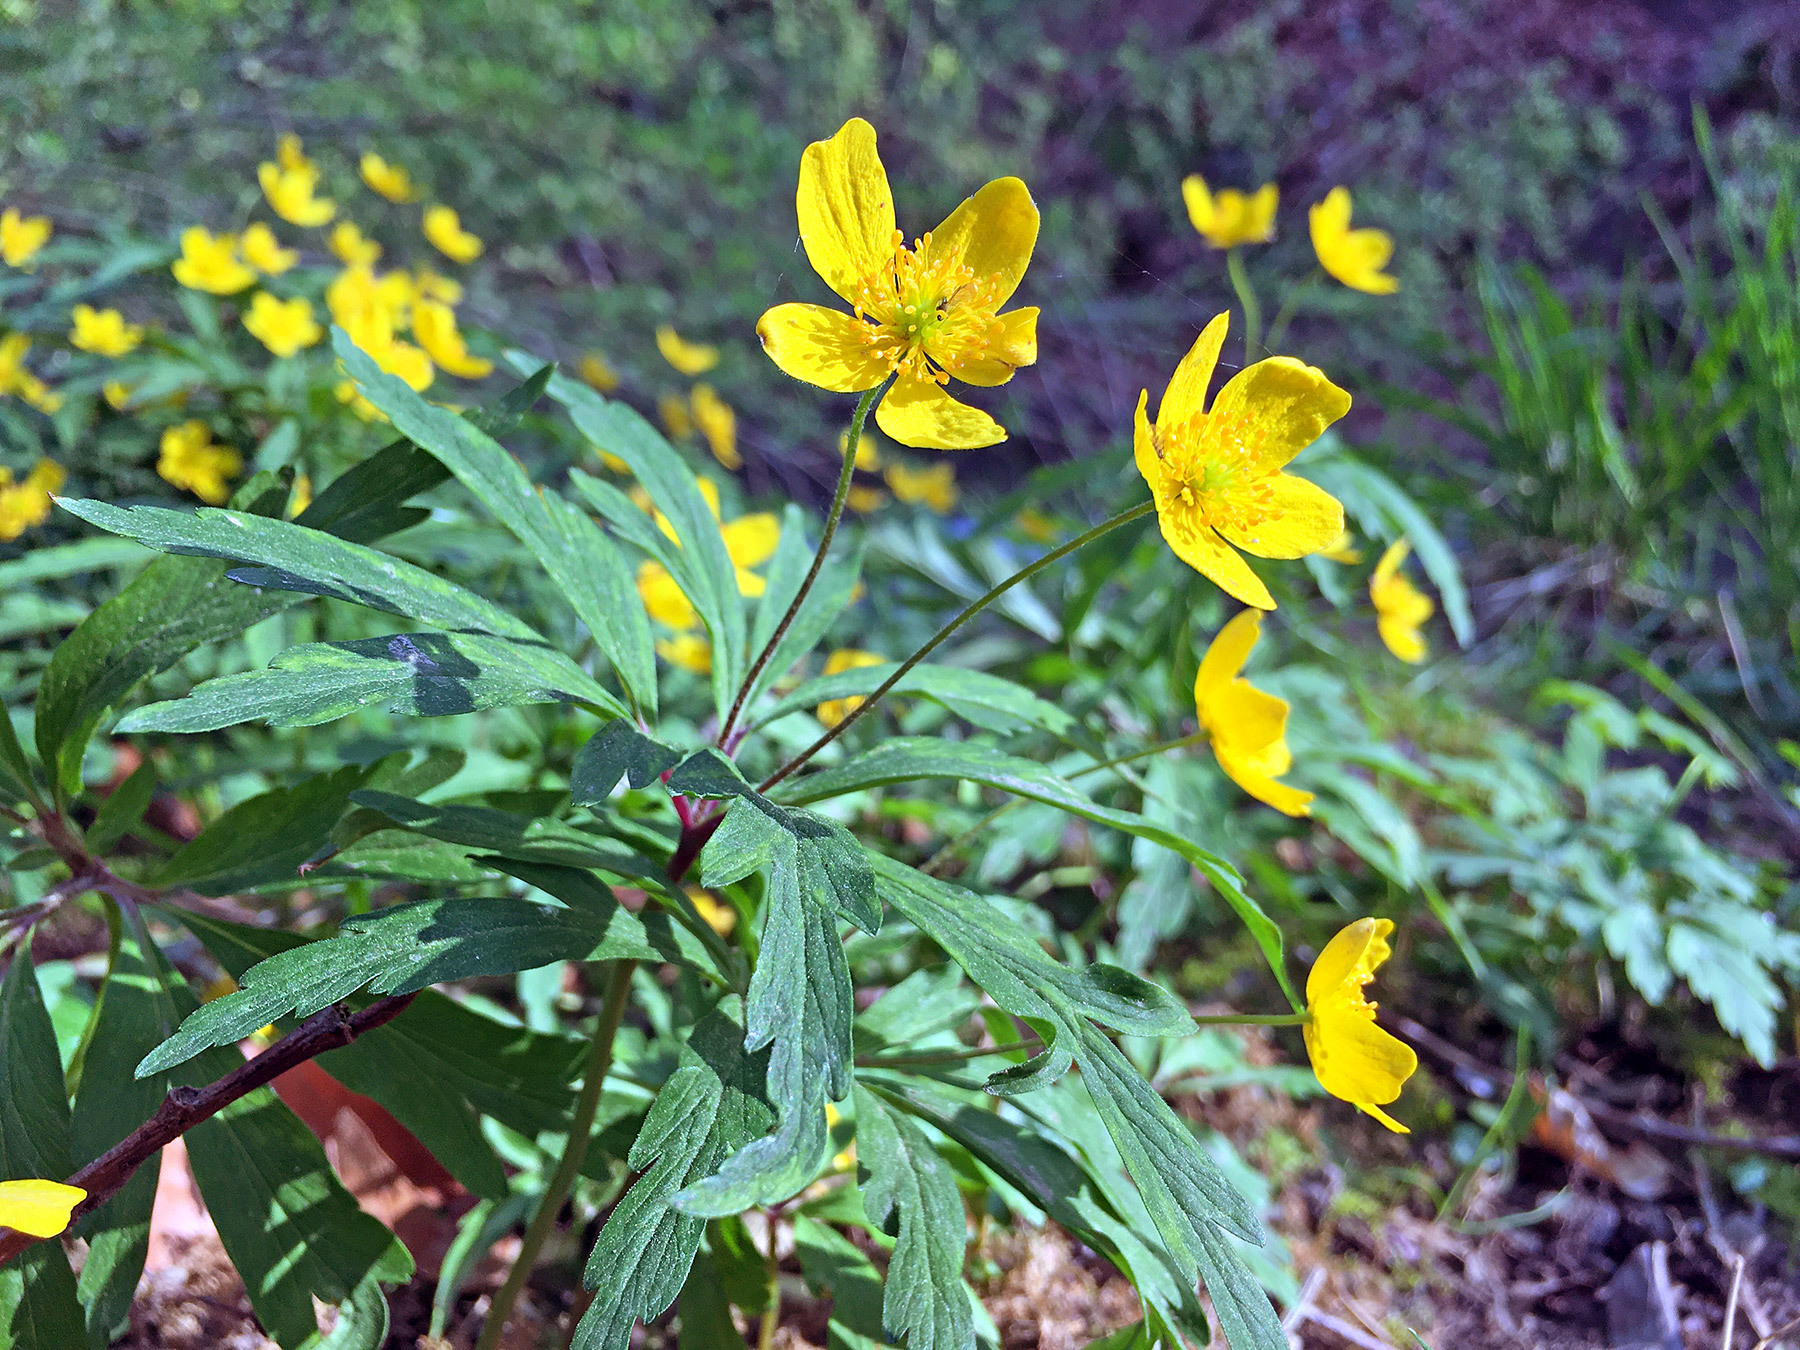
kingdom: Plantae
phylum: Tracheophyta
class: Magnoliopsida
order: Ranunculales
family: Ranunculaceae
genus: Anemone
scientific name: Anemone ranunculoides
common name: Yellow anemone
